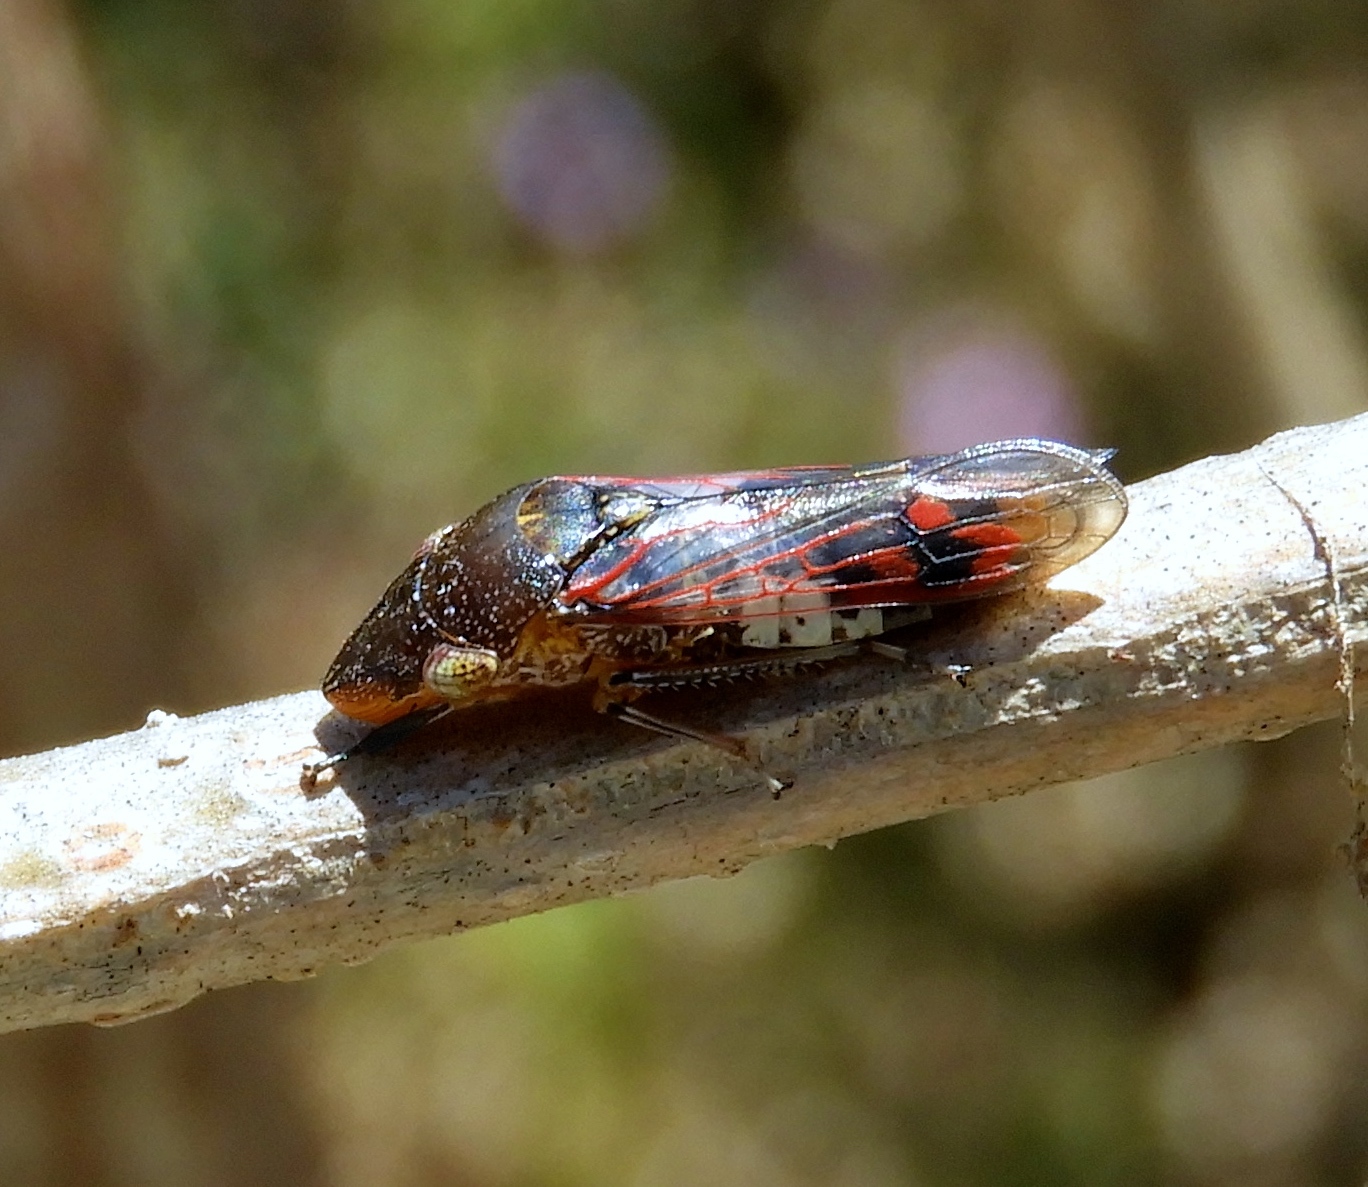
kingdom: Animalia
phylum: Arthropoda
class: Insecta
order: Hemiptera
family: Cicadellidae
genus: Homalodisca
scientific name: Homalodisca
